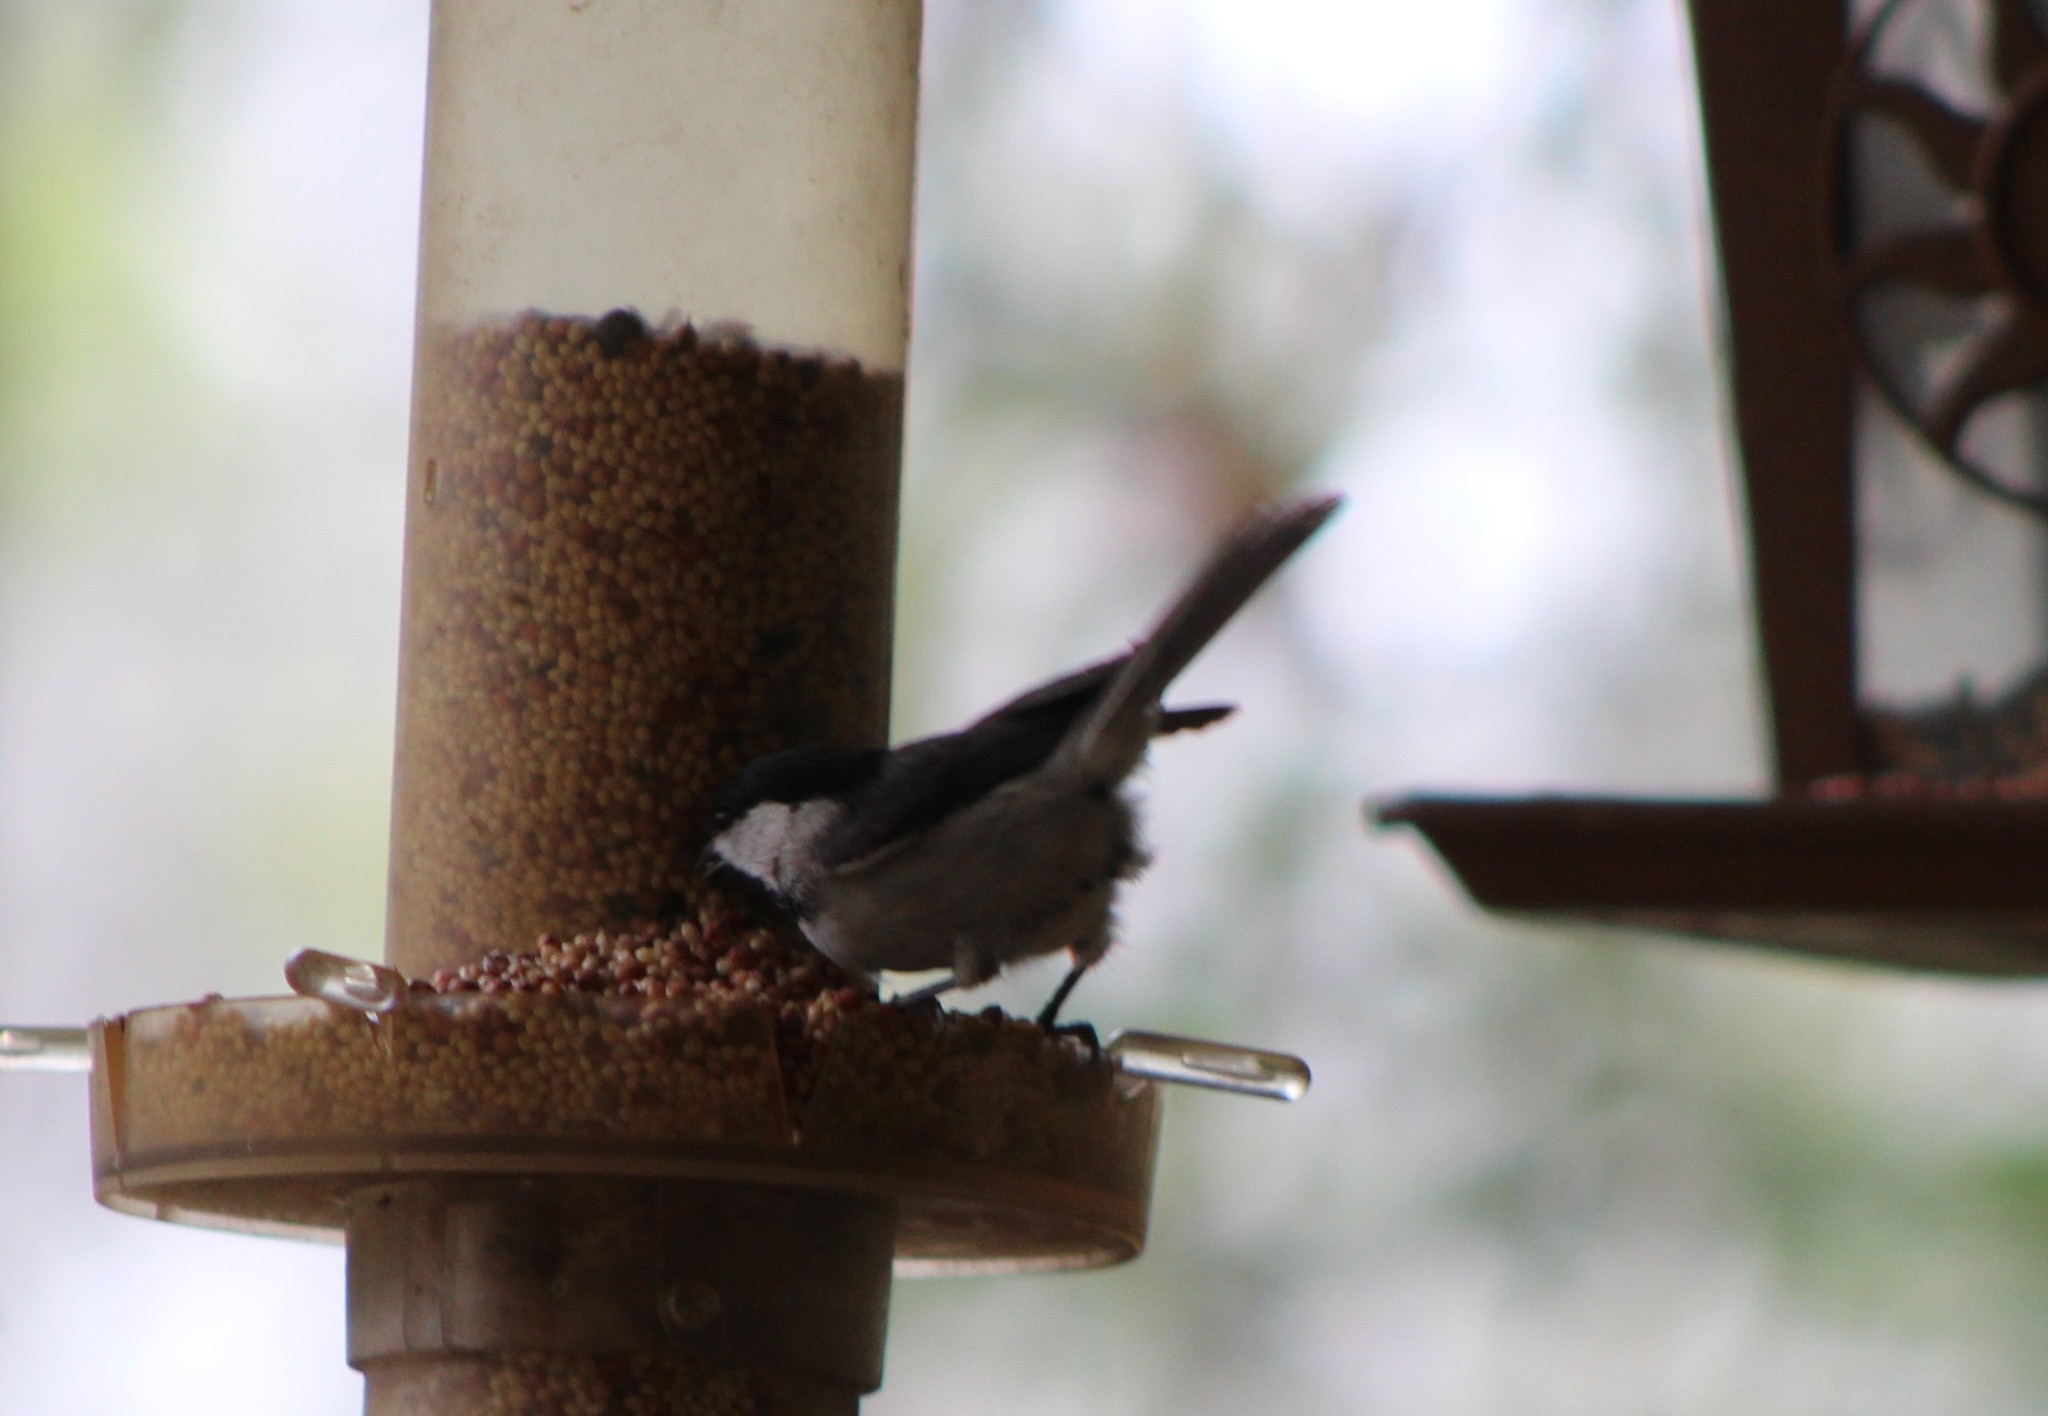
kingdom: Animalia
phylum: Chordata
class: Aves
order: Passeriformes
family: Paridae
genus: Poecile
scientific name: Poecile carolinensis
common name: Carolina chickadee
